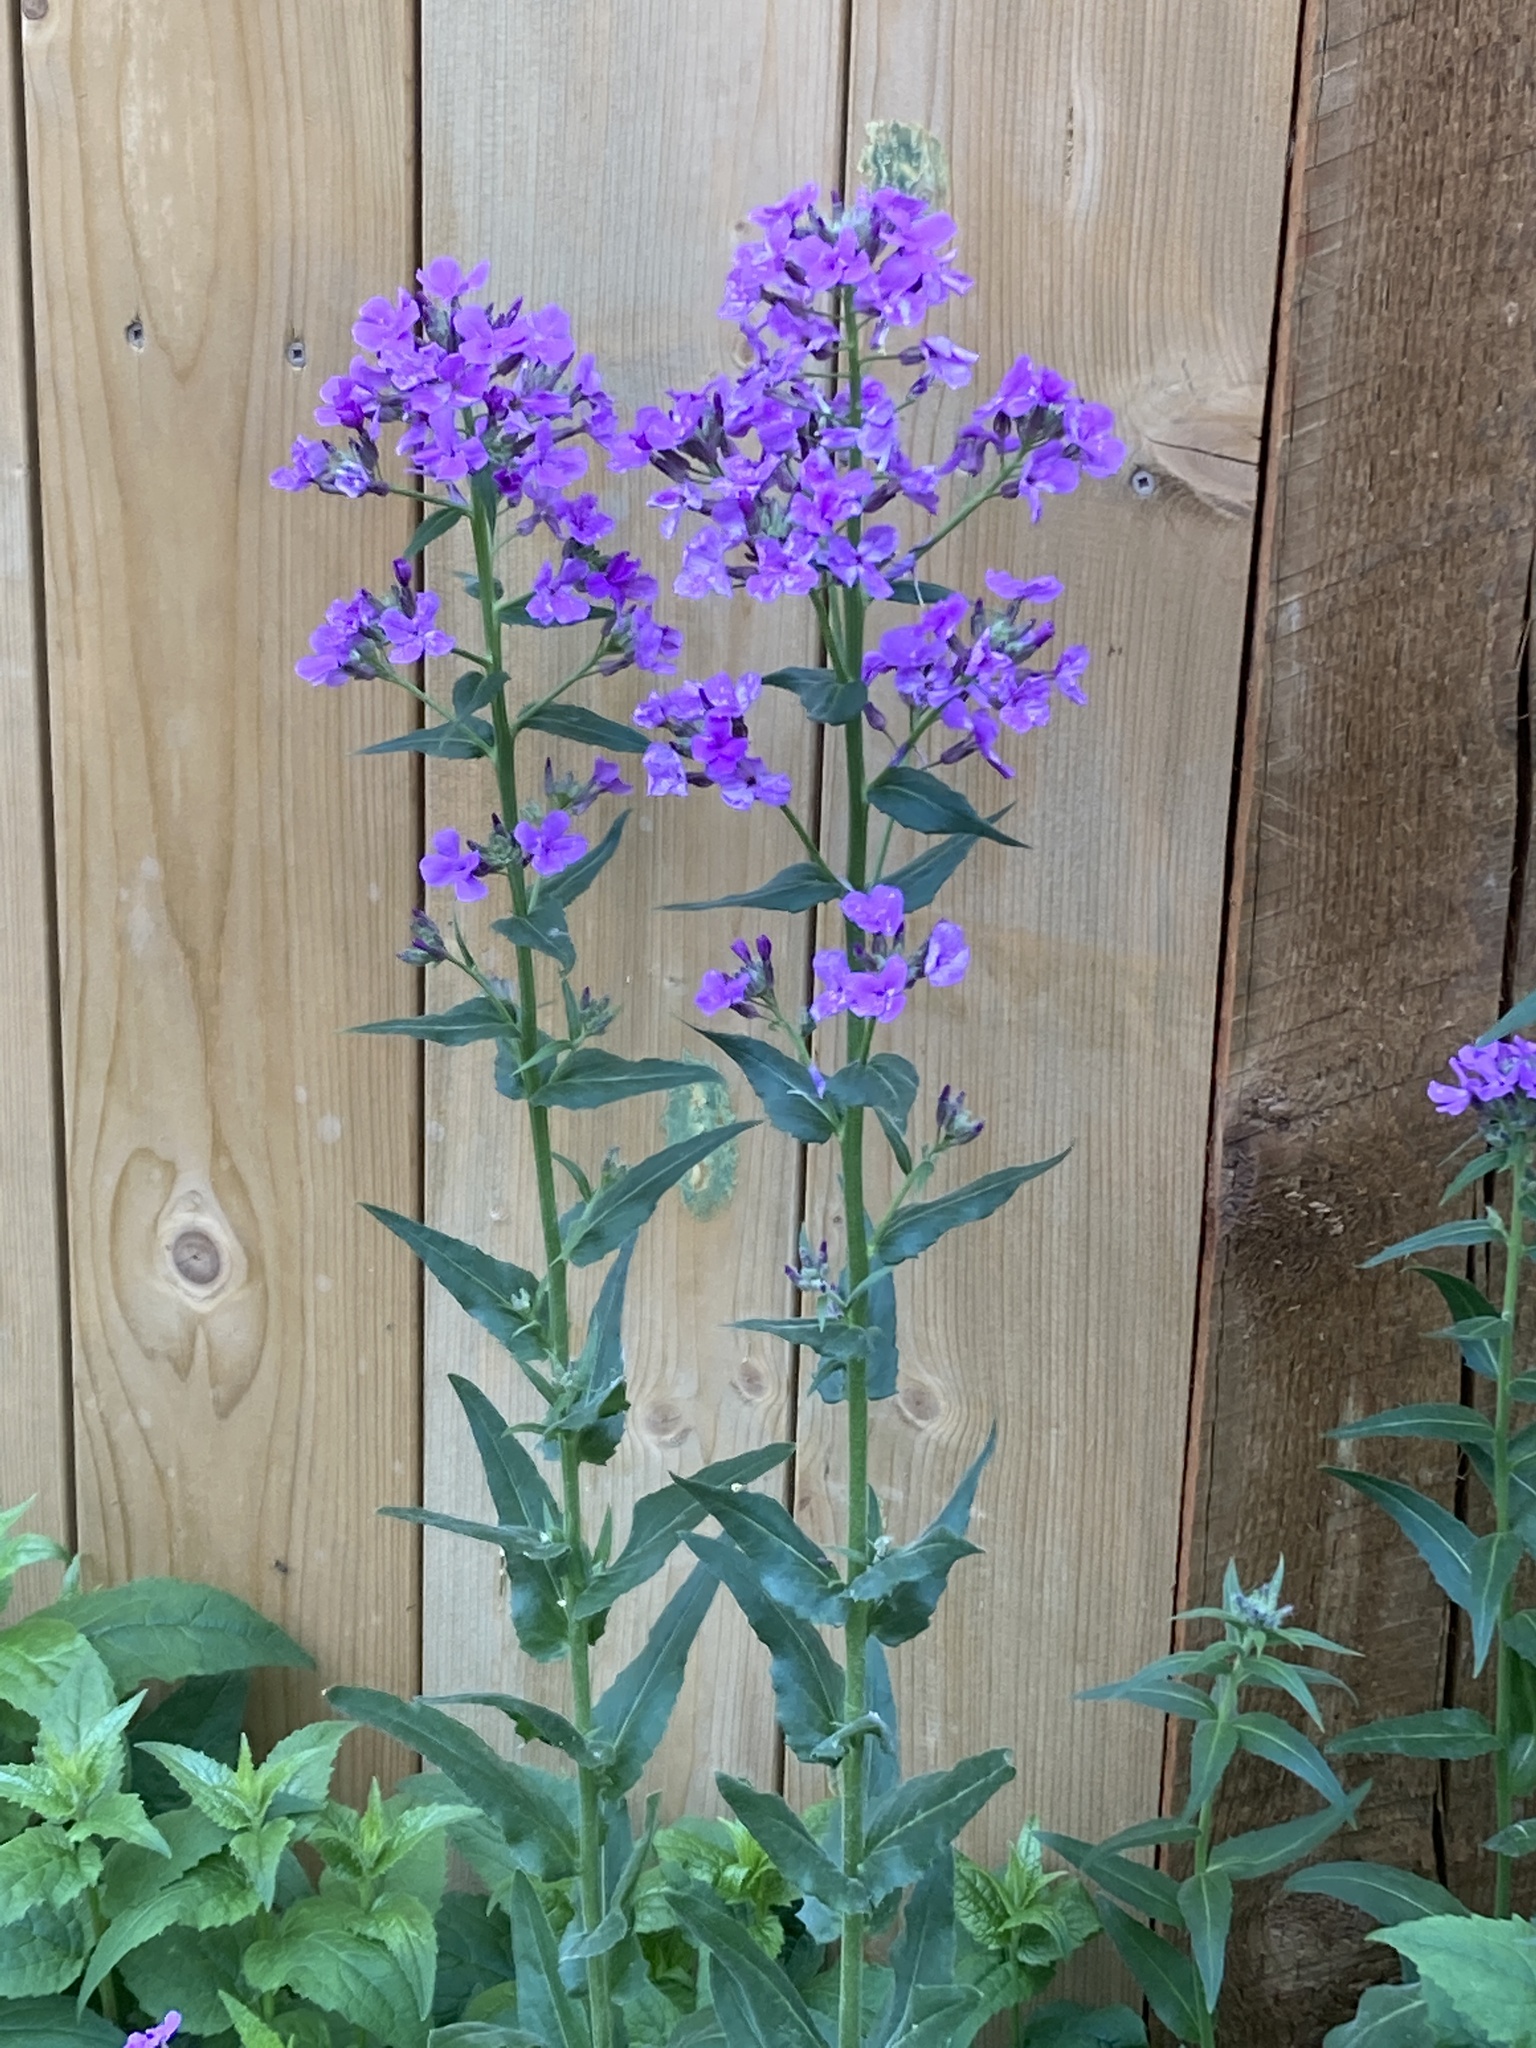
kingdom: Plantae
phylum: Tracheophyta
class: Magnoliopsida
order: Brassicales
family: Brassicaceae
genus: Hesperis
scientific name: Hesperis matronalis
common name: Dame's-violet
